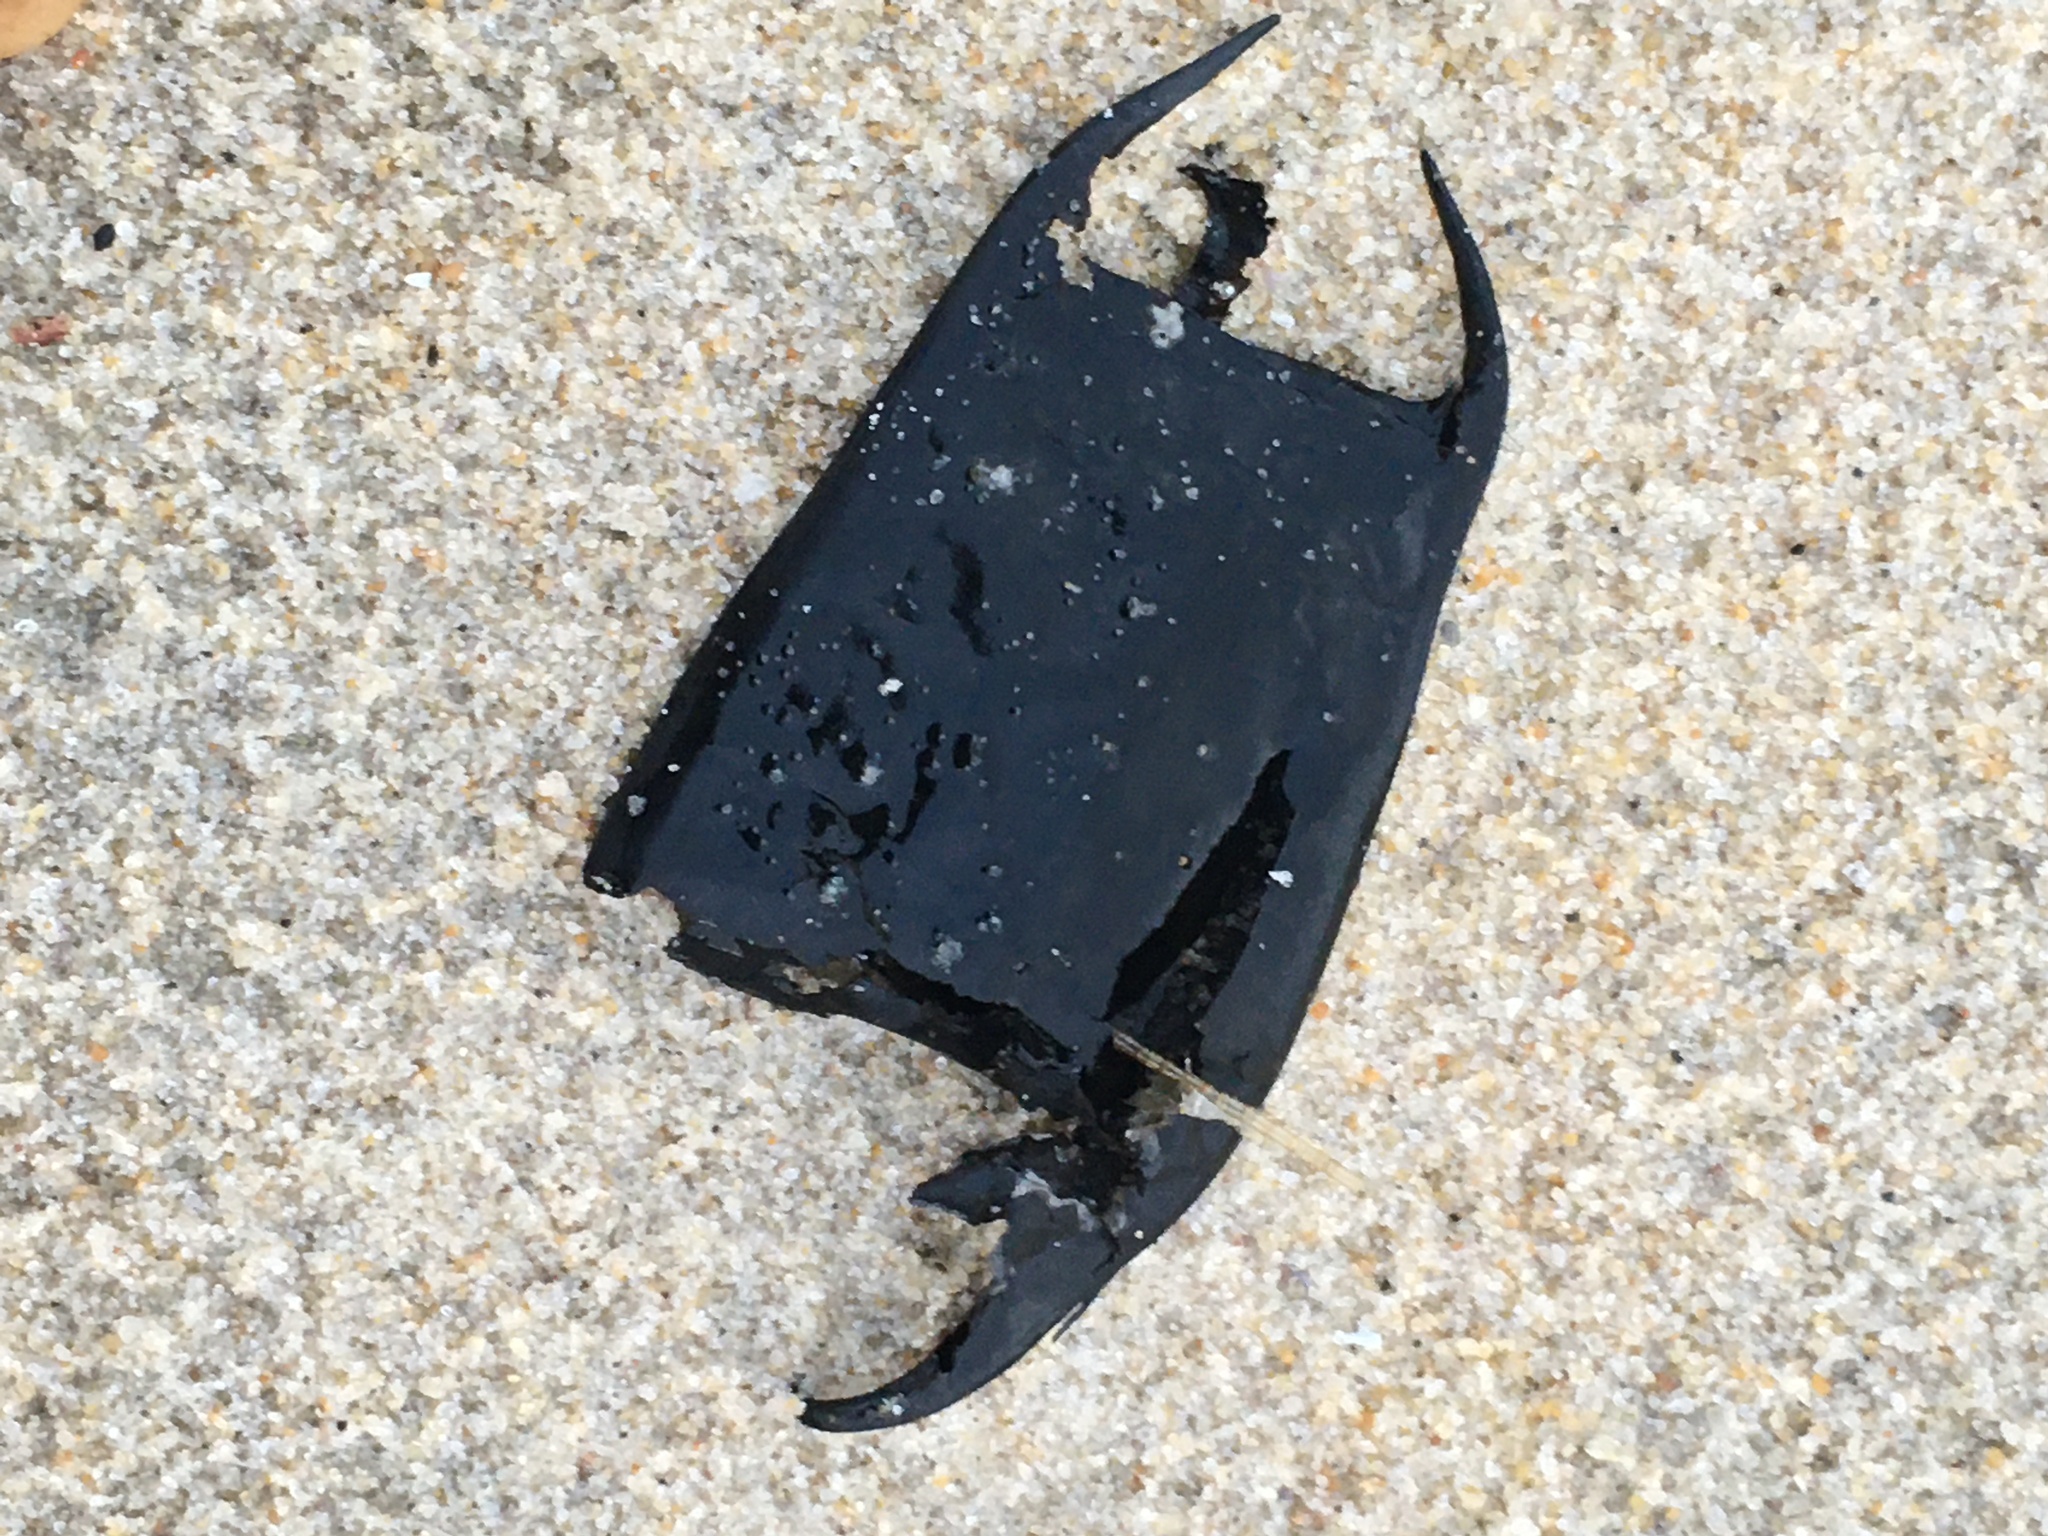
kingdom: Animalia
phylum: Chordata
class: Elasmobranchii
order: Rajiformes
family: Rajidae
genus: Raja
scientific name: Raja eglanteria
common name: Clearnose skate
